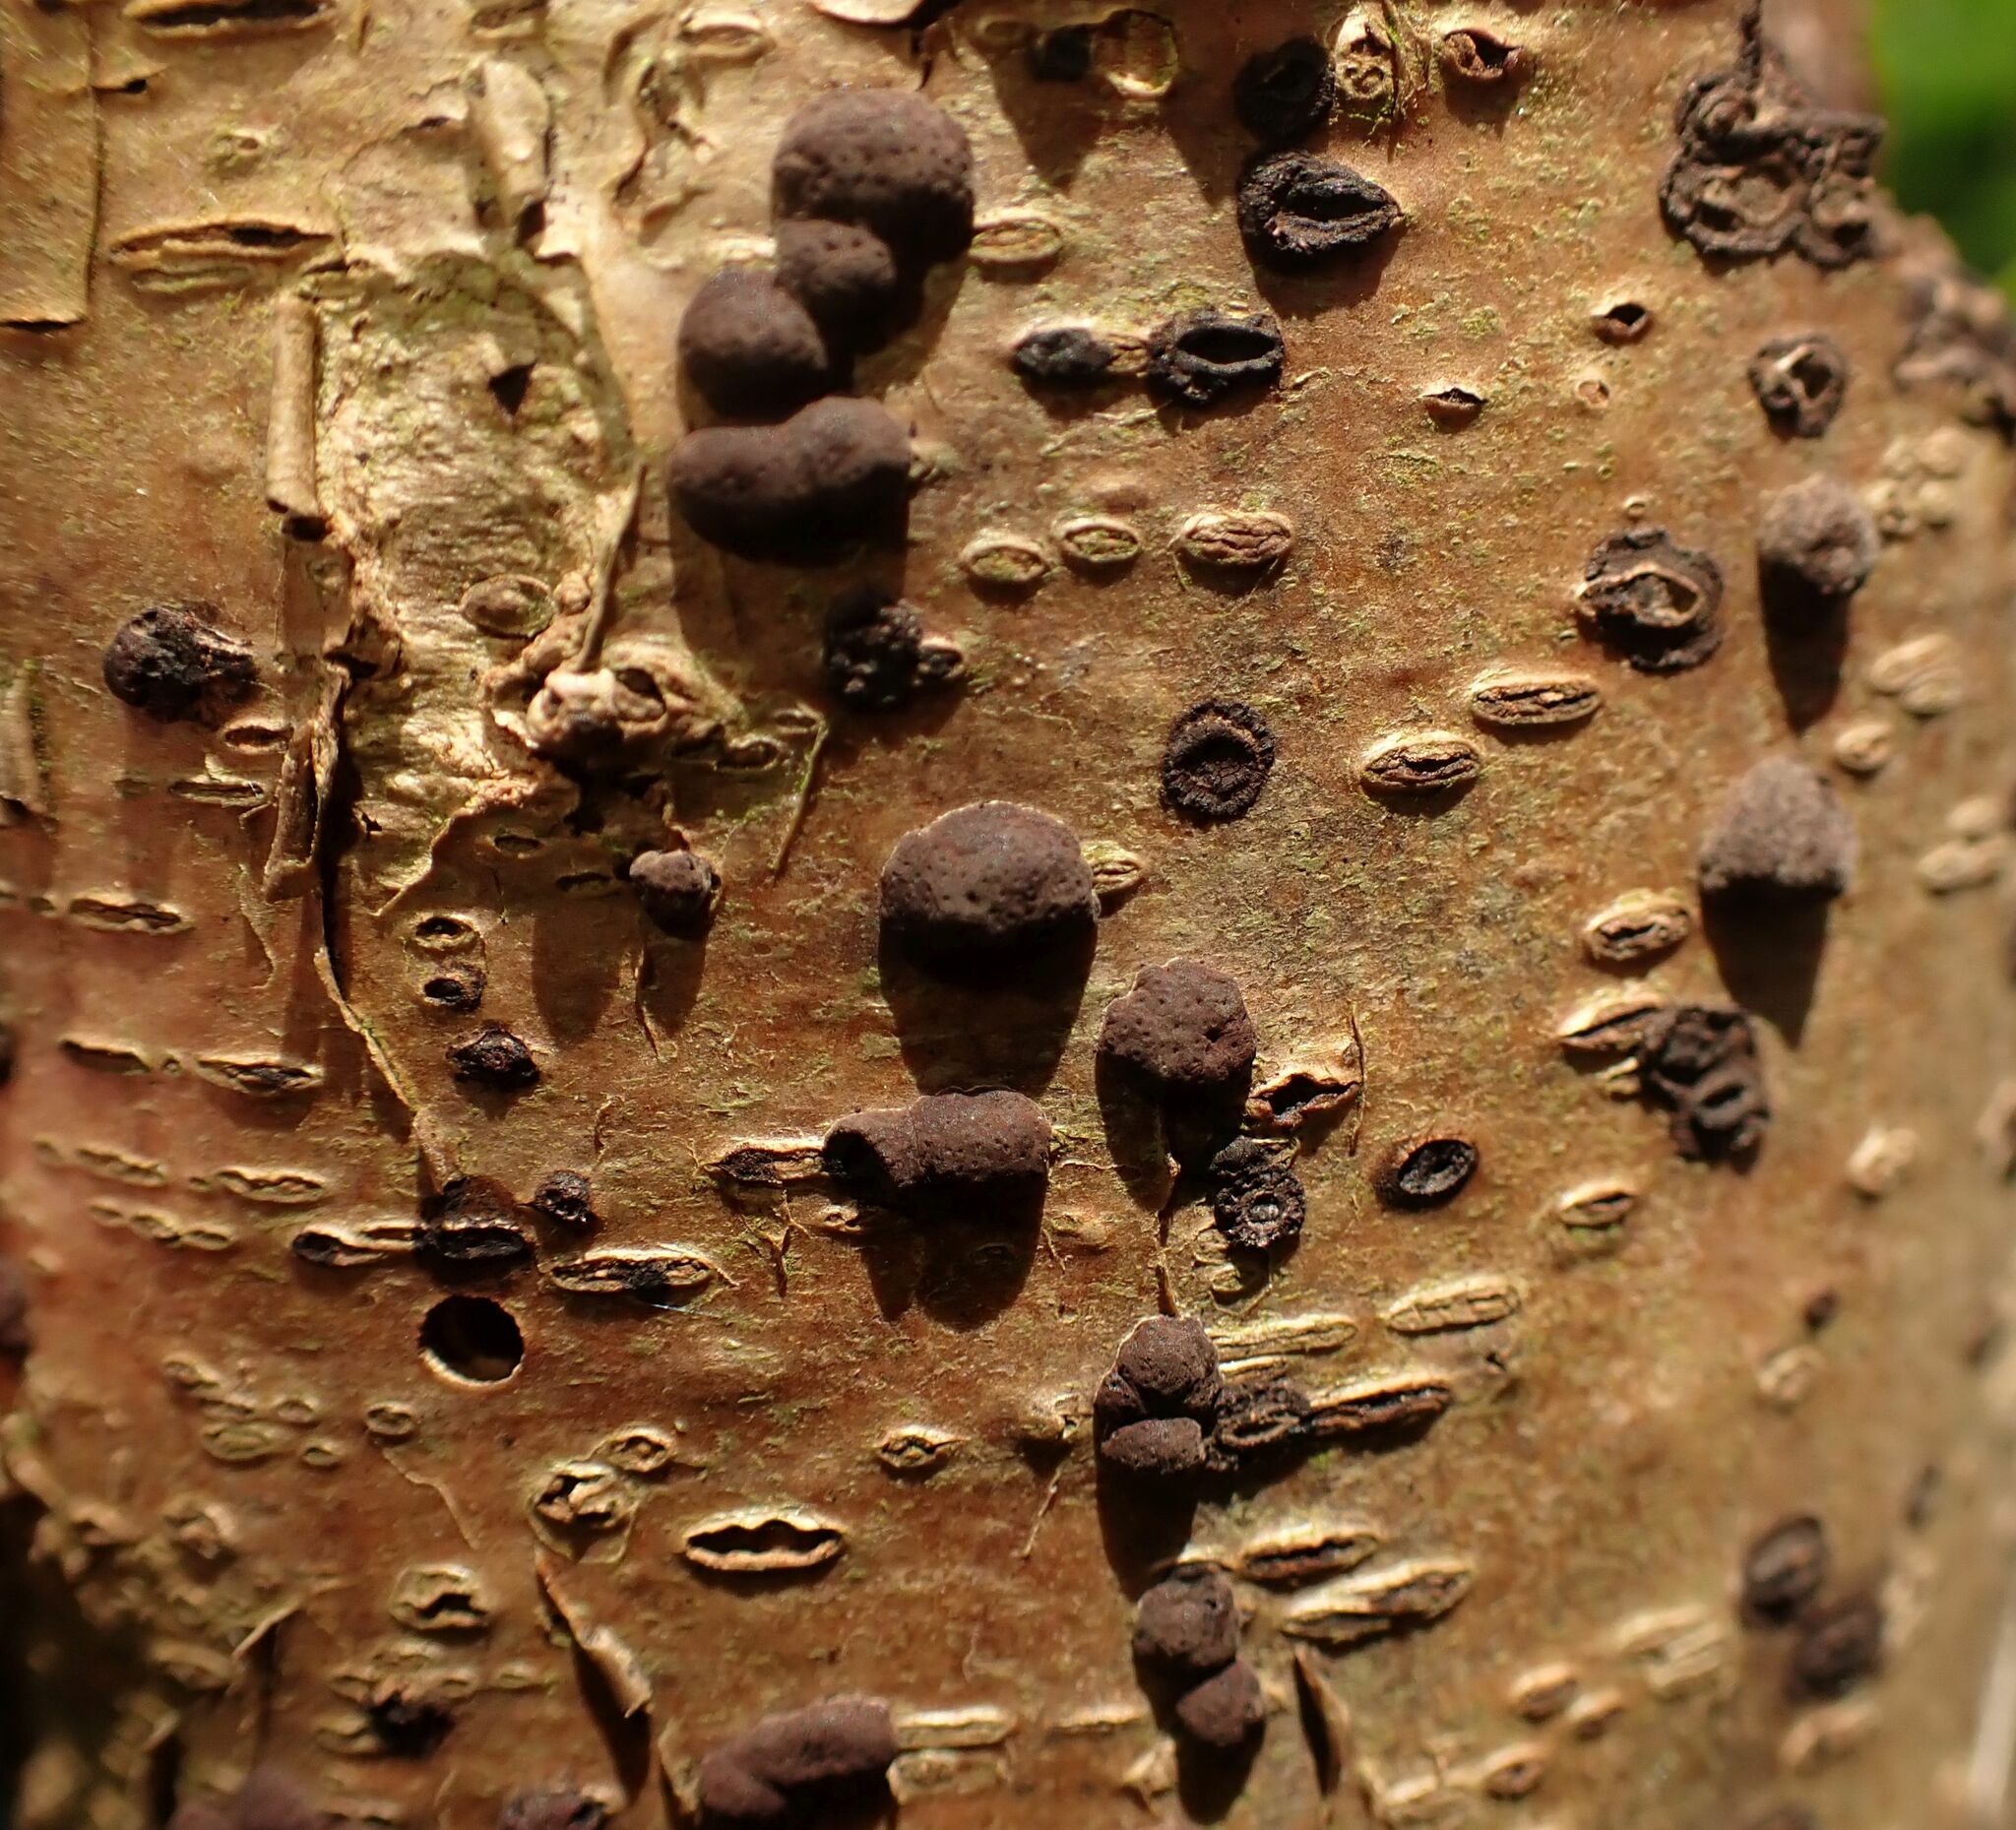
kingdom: Fungi
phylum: Ascomycota
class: Sordariomycetes
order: Xylariales
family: Hypoxylaceae
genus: Hypoxylon
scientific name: Hypoxylon fuscum
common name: Hazel woodwart
